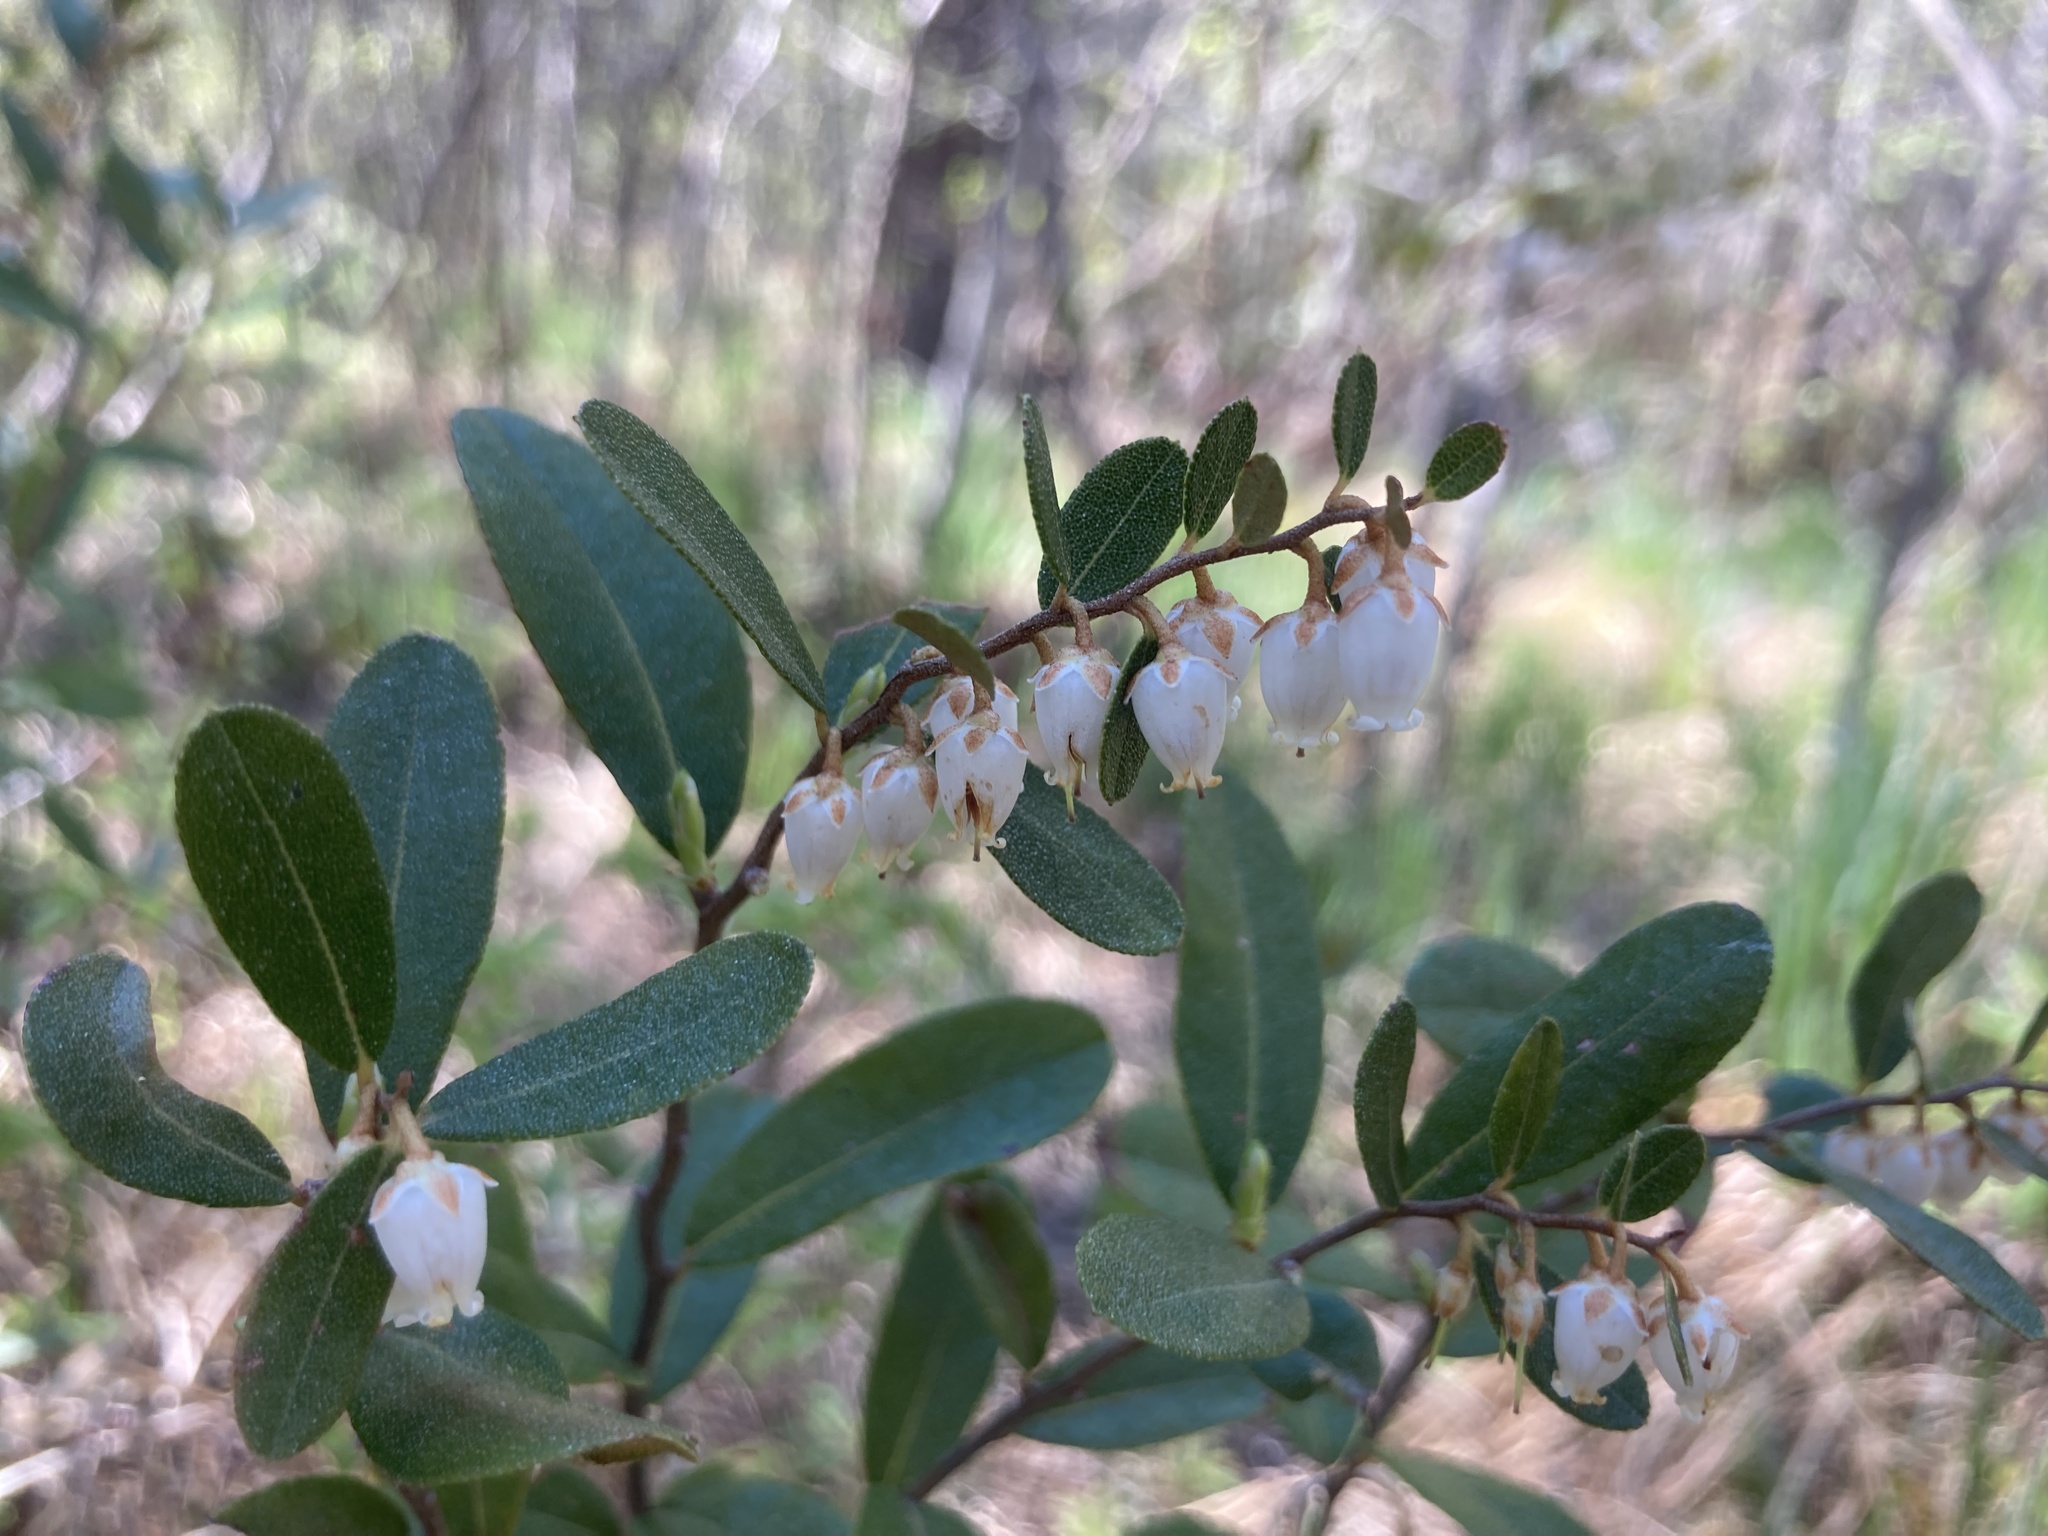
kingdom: Plantae
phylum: Tracheophyta
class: Magnoliopsida
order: Ericales
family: Ericaceae
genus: Chamaedaphne
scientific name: Chamaedaphne calyculata
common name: Leatherleaf
